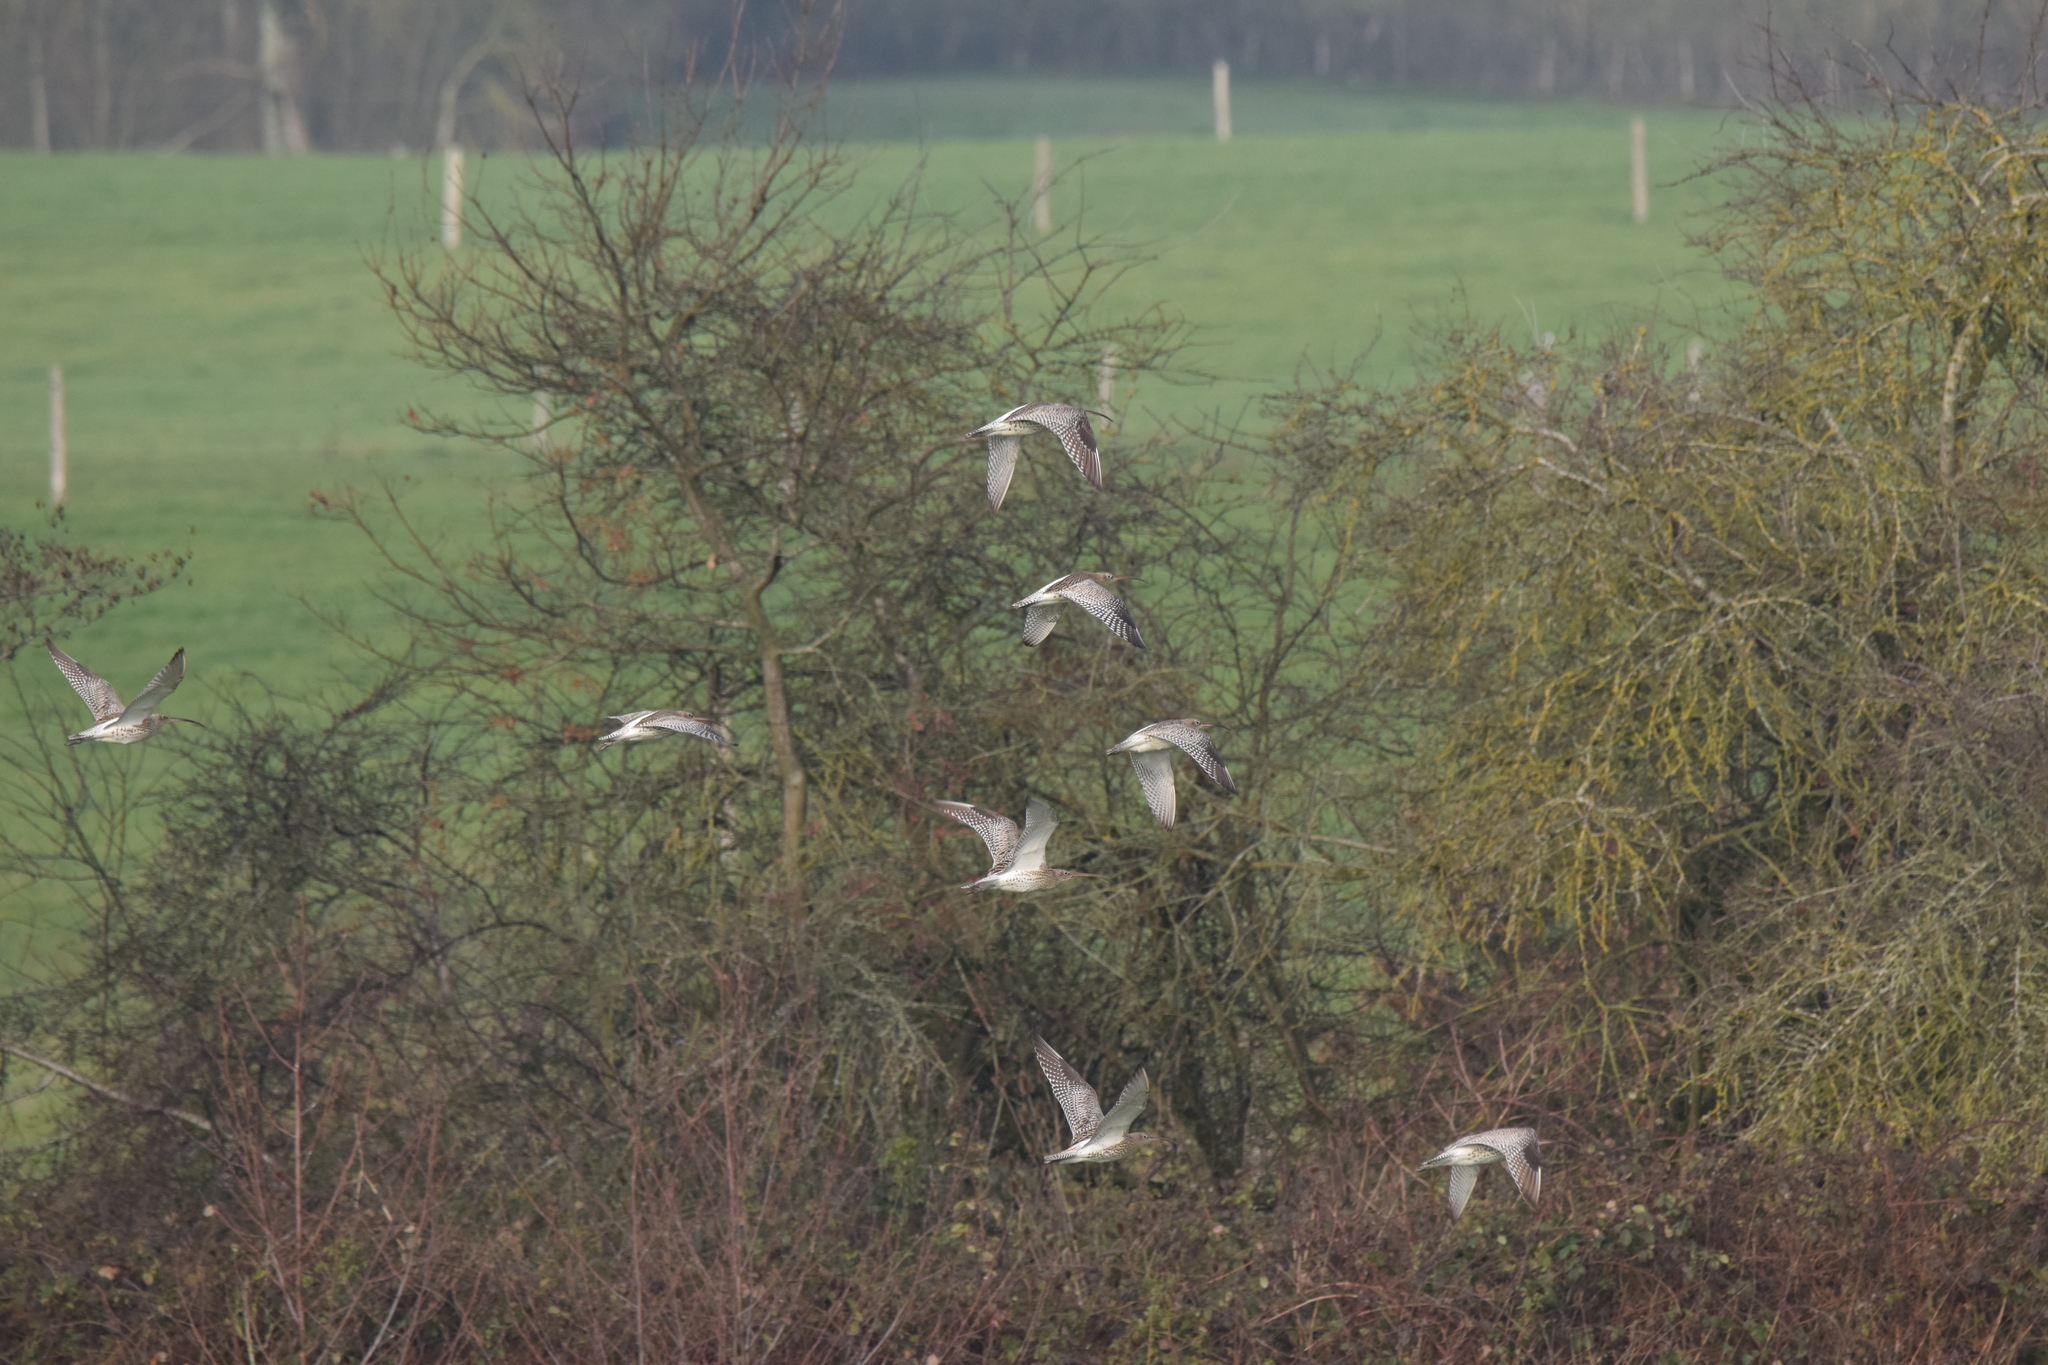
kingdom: Animalia
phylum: Chordata
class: Aves
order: Charadriiformes
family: Scolopacidae
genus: Numenius
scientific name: Numenius arquata
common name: Eurasian curlew
